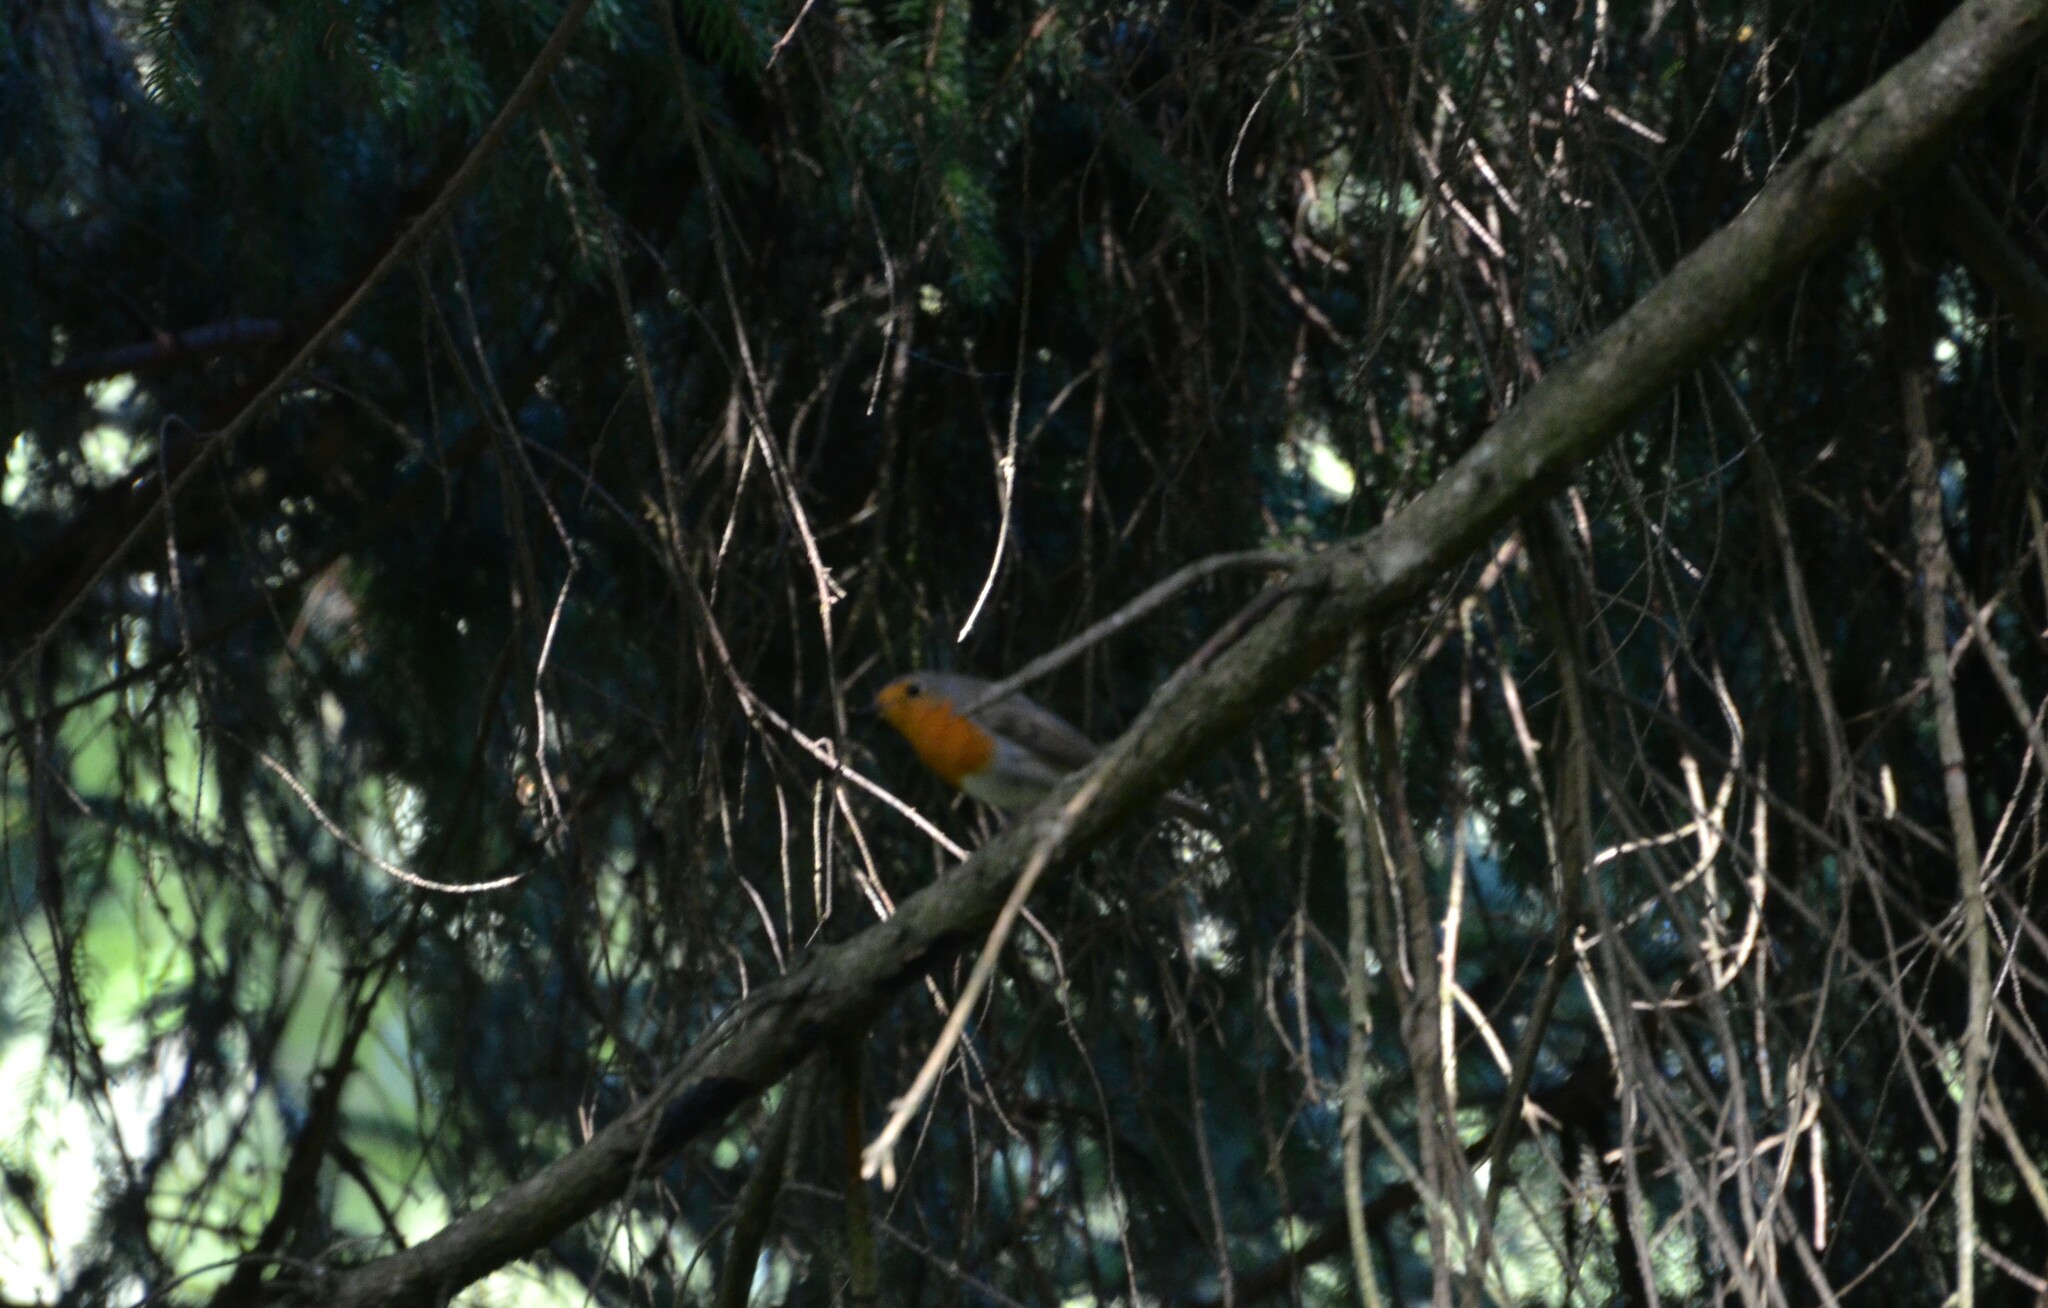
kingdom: Animalia
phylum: Chordata
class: Aves
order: Passeriformes
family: Muscicapidae
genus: Erithacus
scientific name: Erithacus rubecula
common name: European robin
